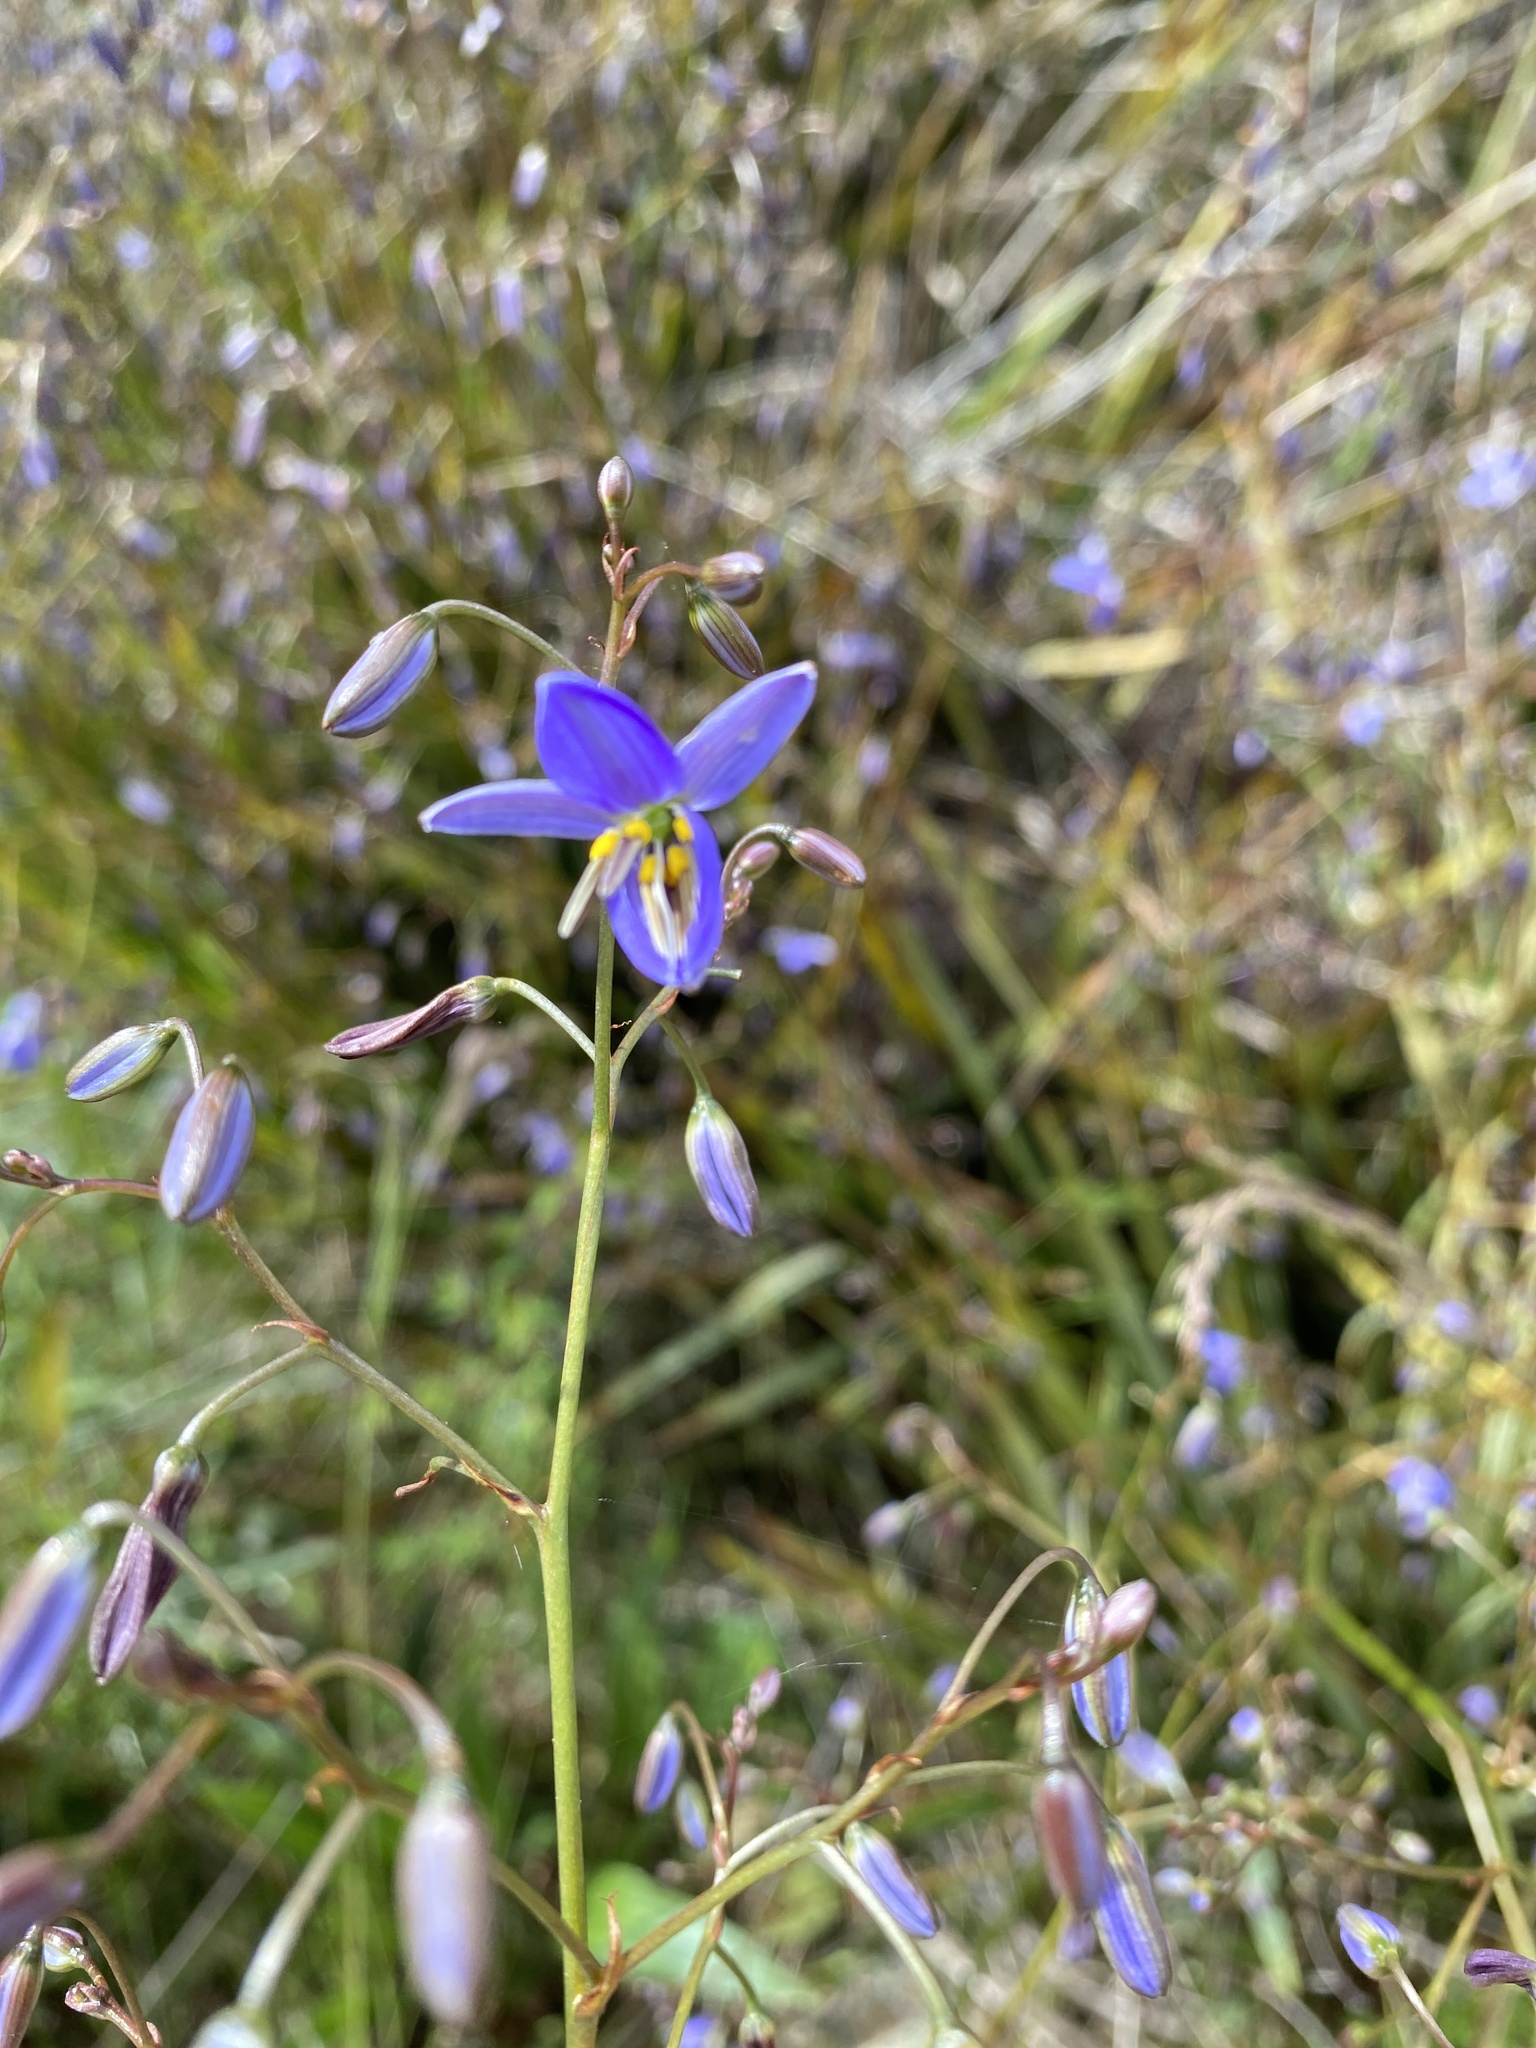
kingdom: Plantae
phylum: Tracheophyta
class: Liliopsida
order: Asparagales
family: Asphodelaceae
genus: Dianella
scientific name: Dianella revoluta
